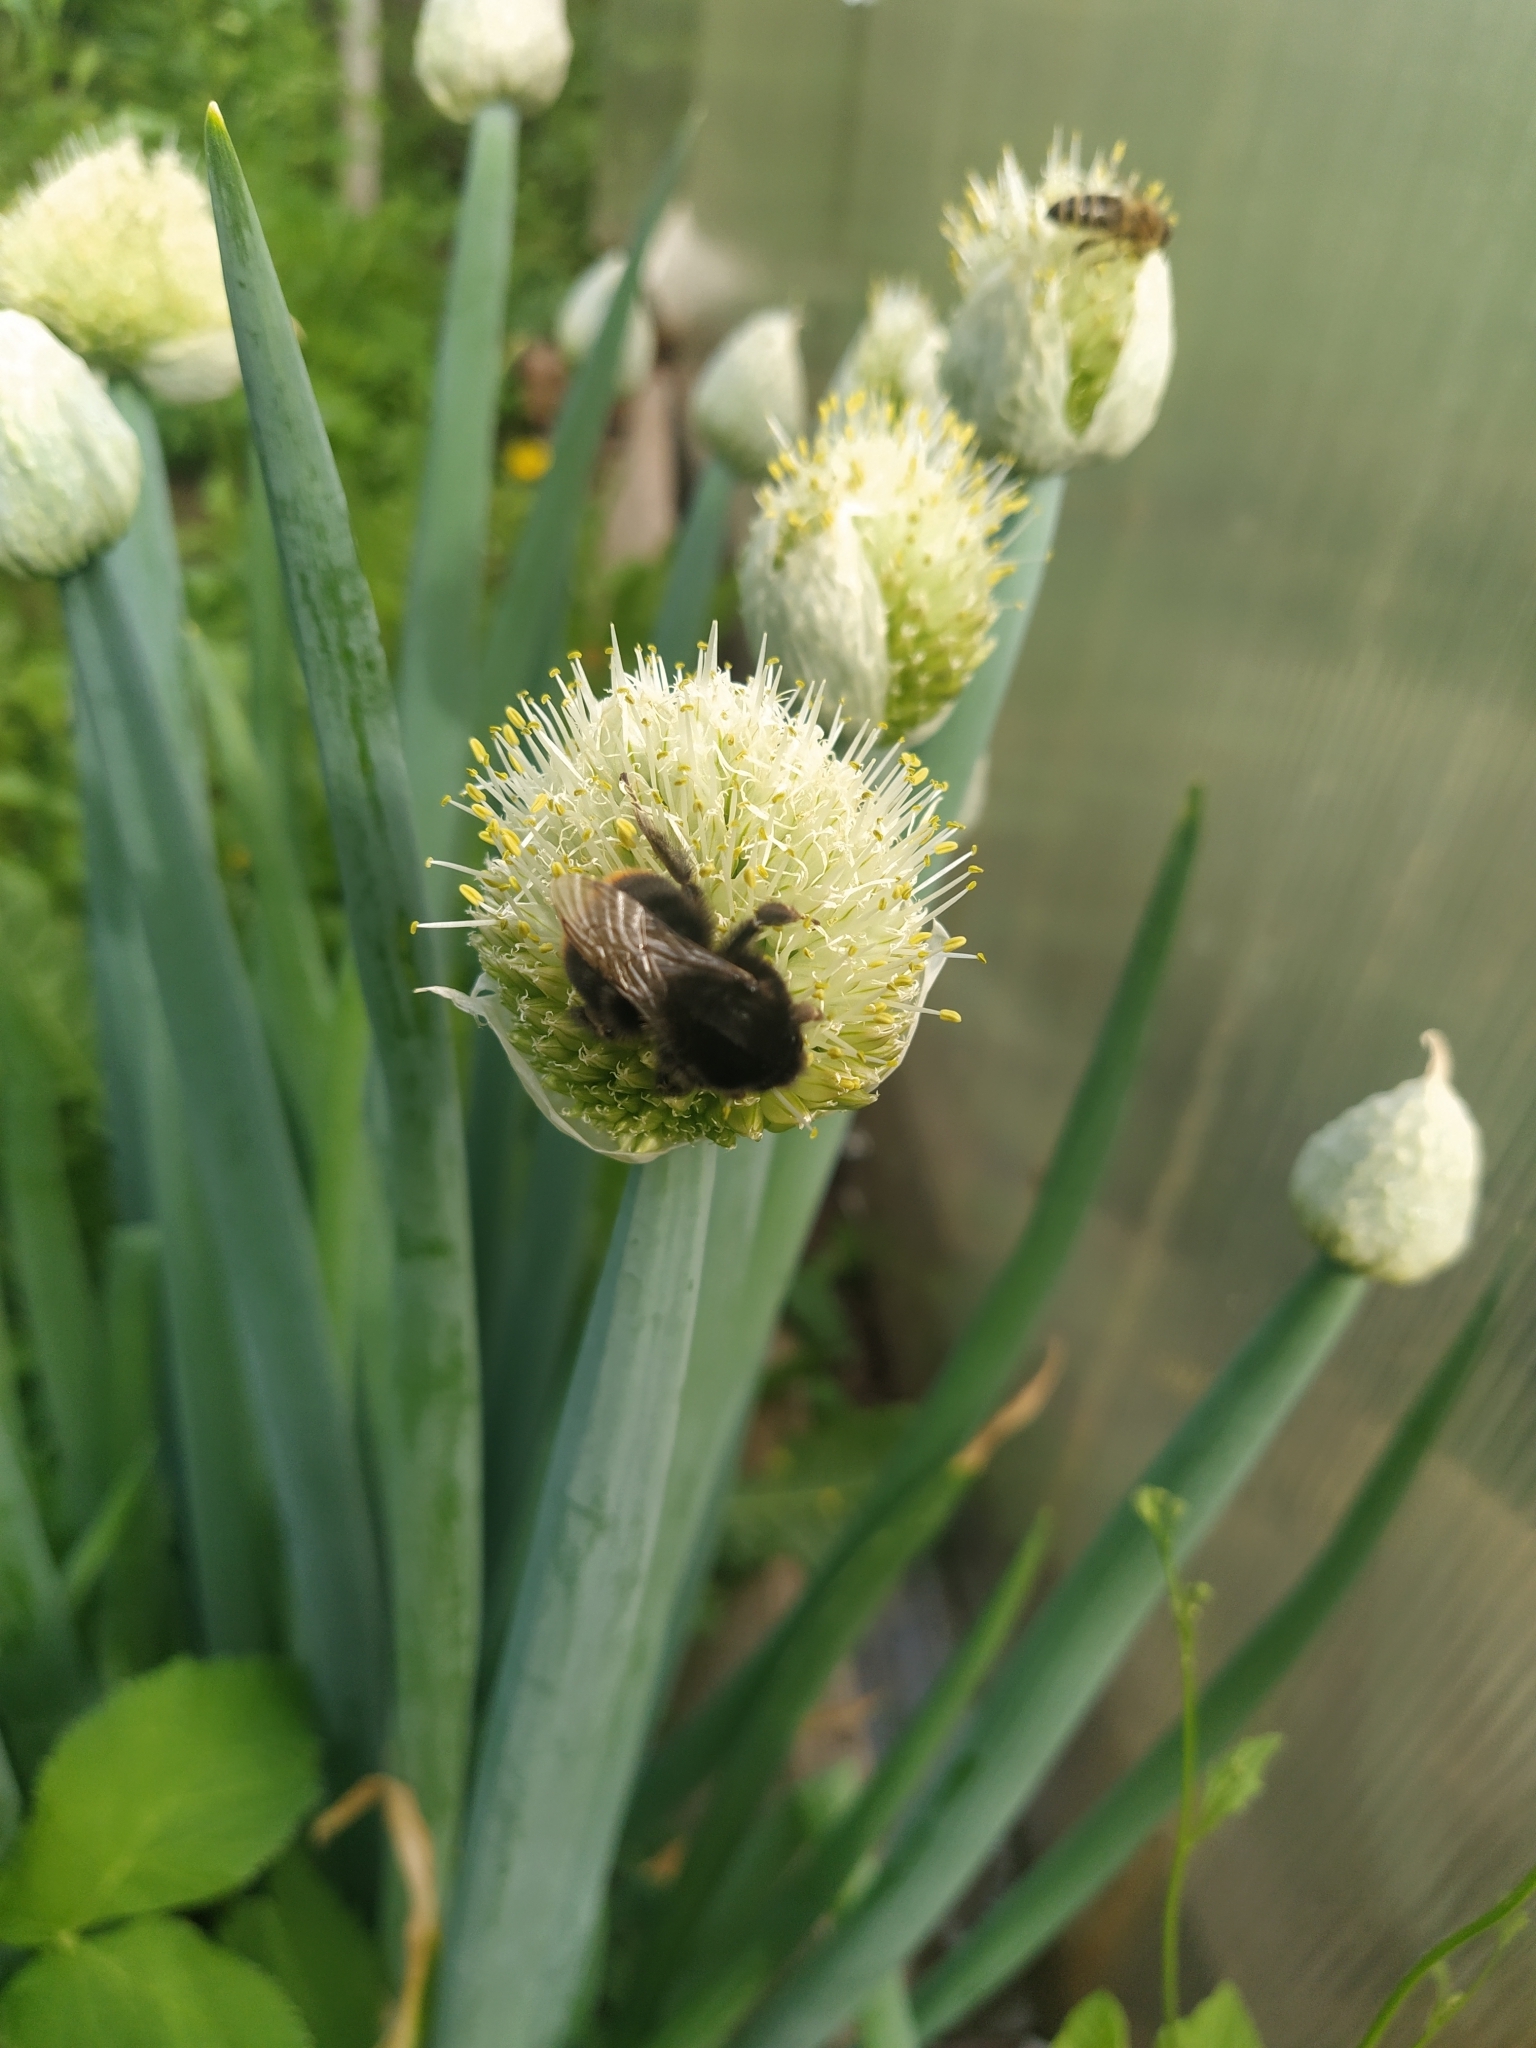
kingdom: Animalia
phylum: Arthropoda
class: Insecta
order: Hymenoptera
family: Apidae
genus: Bombus
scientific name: Bombus lapidarius
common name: Large red-tailed humble-bee
